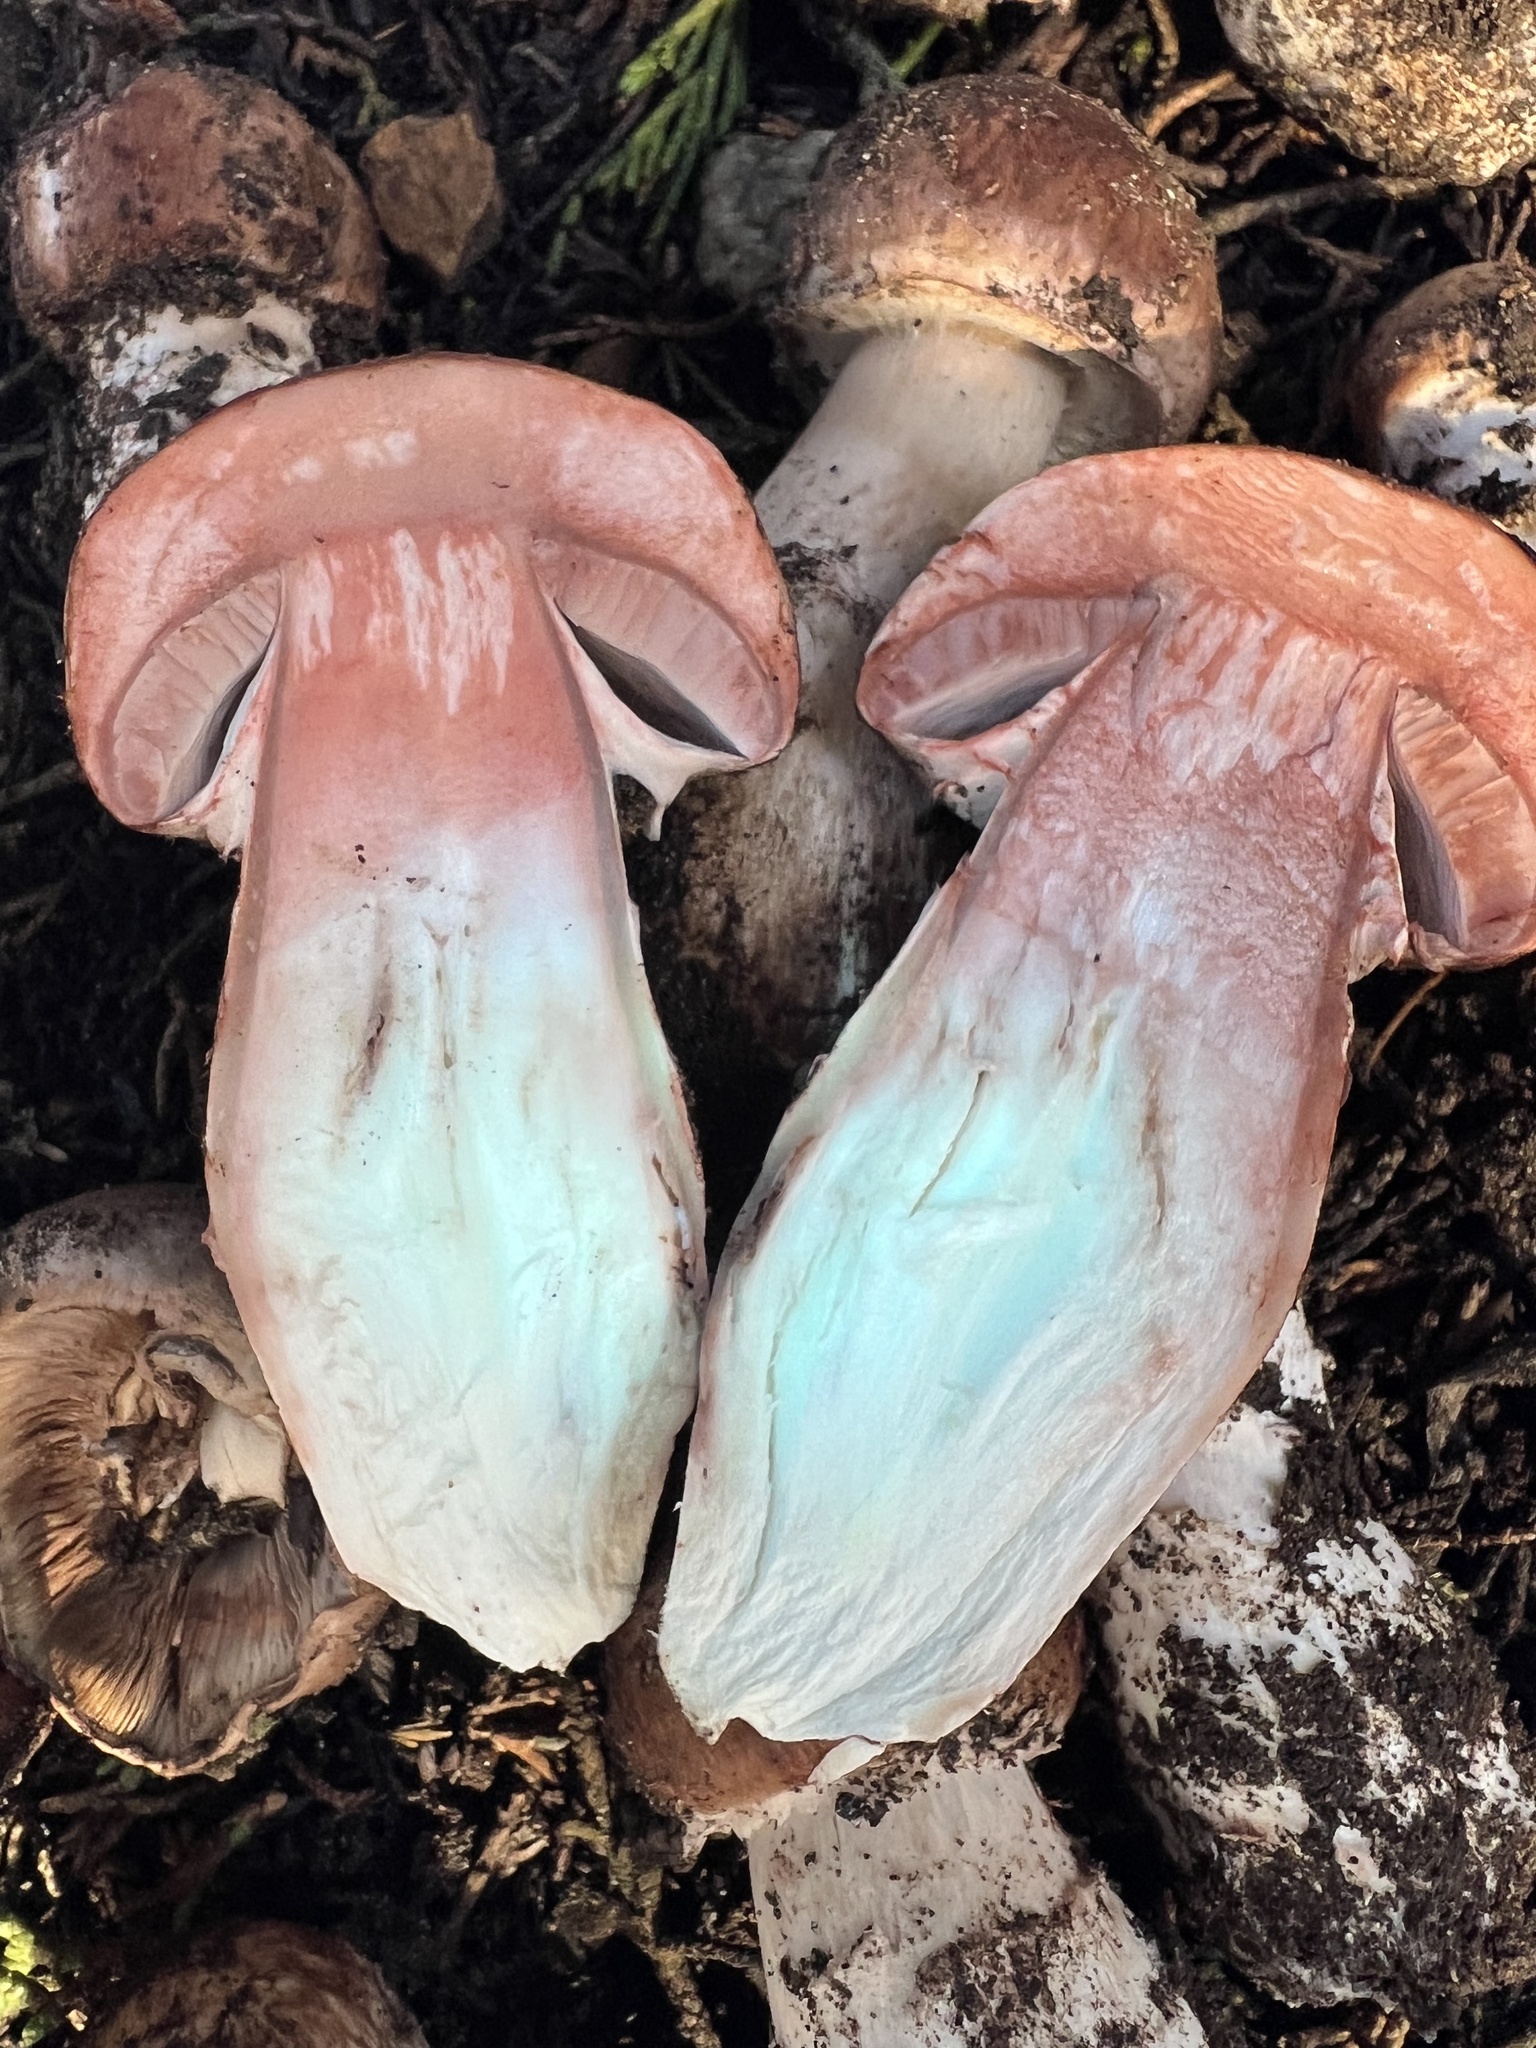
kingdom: Fungi
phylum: Basidiomycota
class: Agaricomycetes
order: Agaricales
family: Agaricaceae
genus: Agaricus
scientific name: Agaricus brunneofibrillosus
